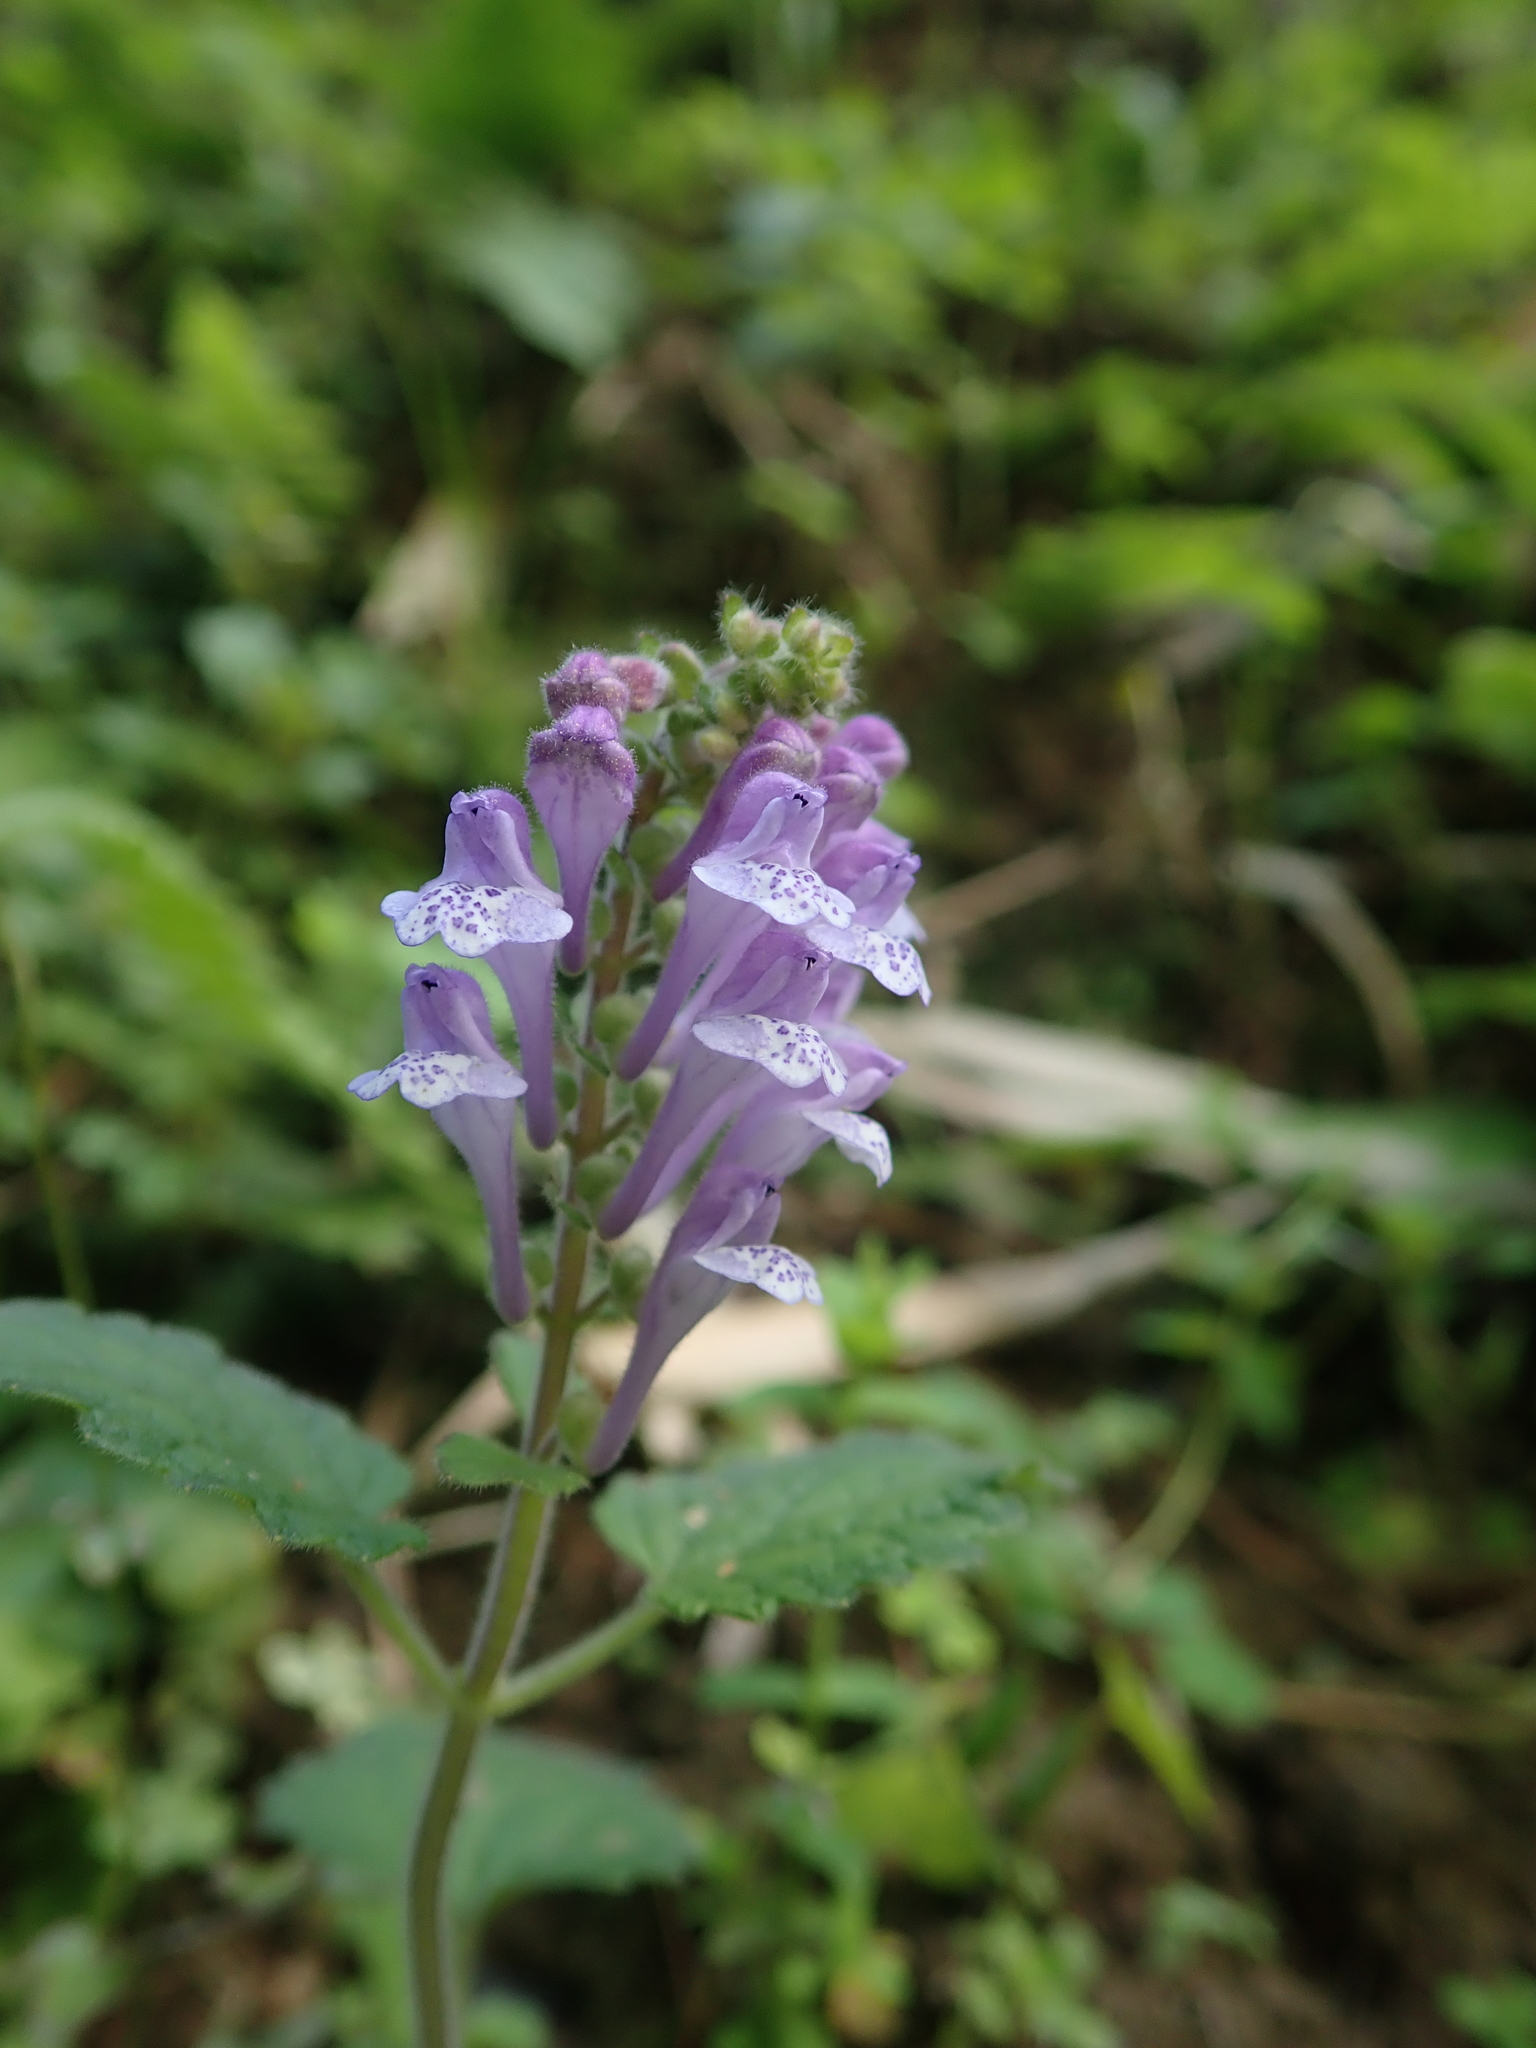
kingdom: Plantae
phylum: Tracheophyta
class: Magnoliopsida
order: Lamiales
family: Lamiaceae
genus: Scutellaria
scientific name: Scutellaria indica
